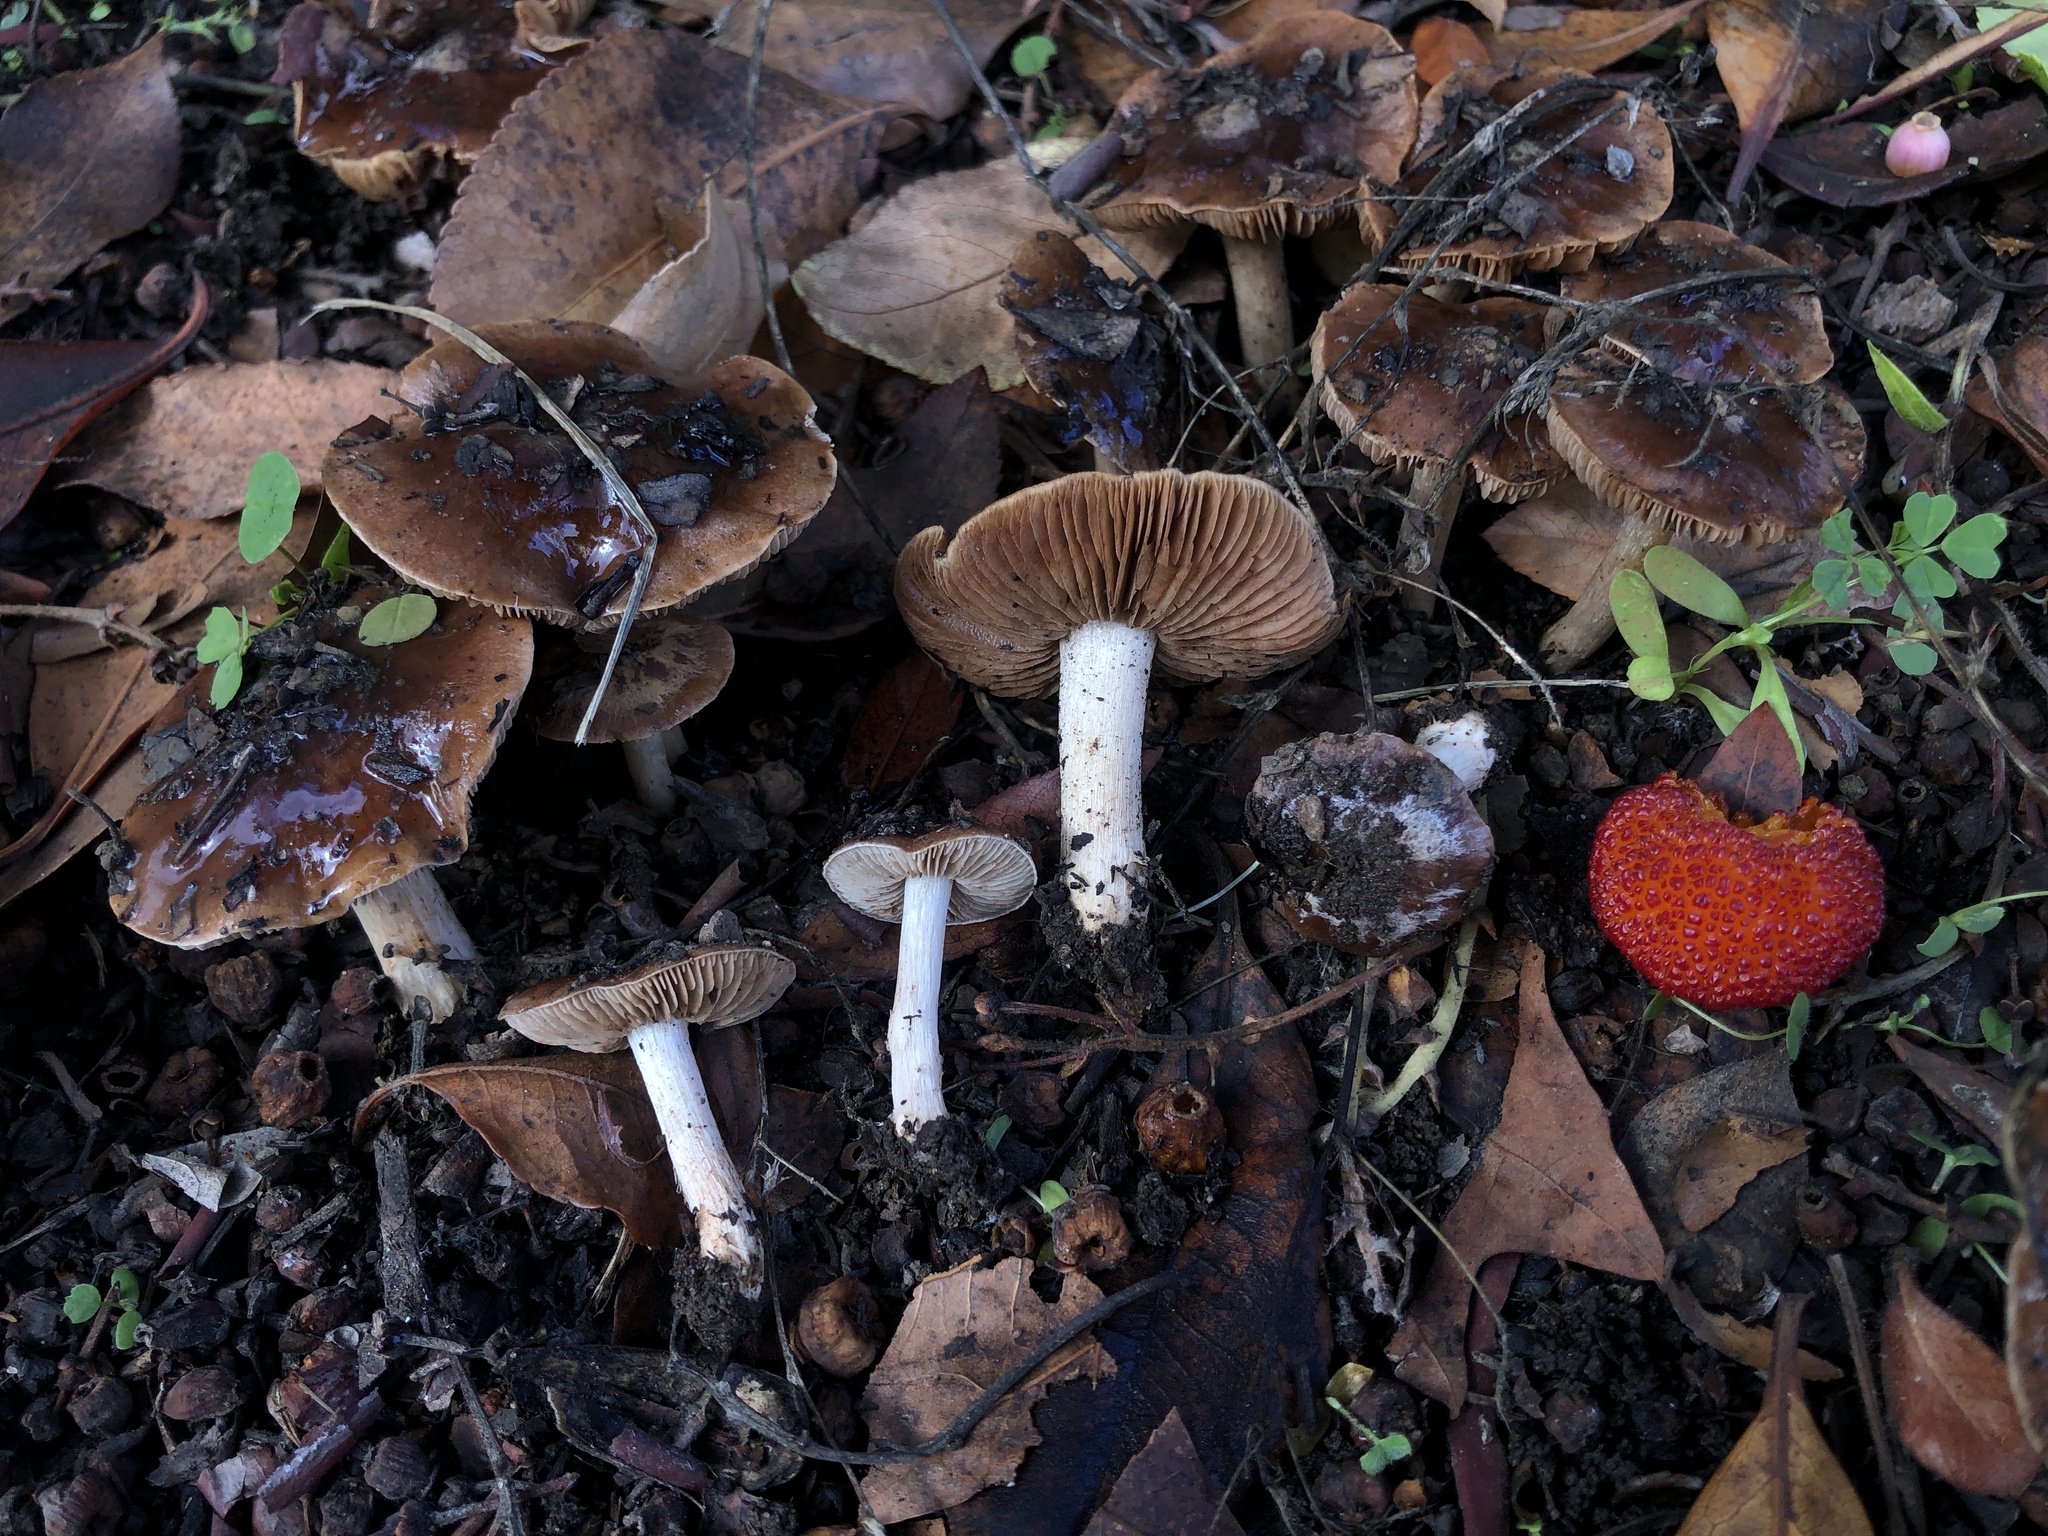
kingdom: Fungi
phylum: Basidiomycota
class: Agaricomycetes
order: Agaricales
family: Hymenogastraceae
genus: Hebeloma
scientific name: Hebeloma theobrominum
